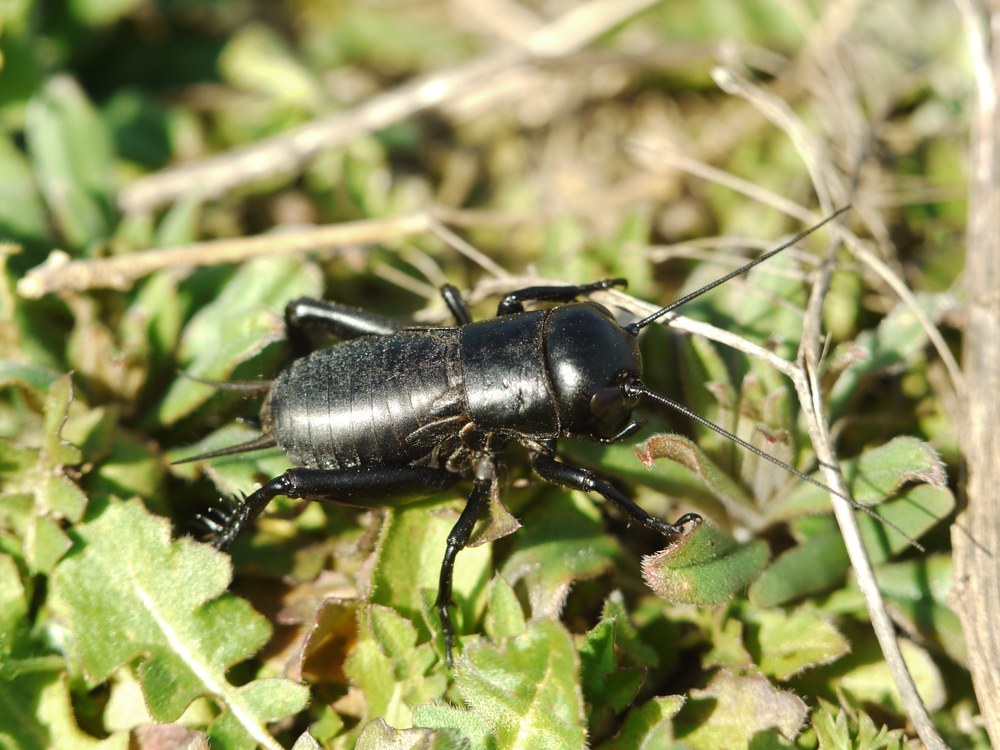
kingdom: Animalia
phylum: Arthropoda
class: Insecta
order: Orthoptera
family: Gryllidae
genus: Gryllus
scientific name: Gryllus campestris
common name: Field cricket
